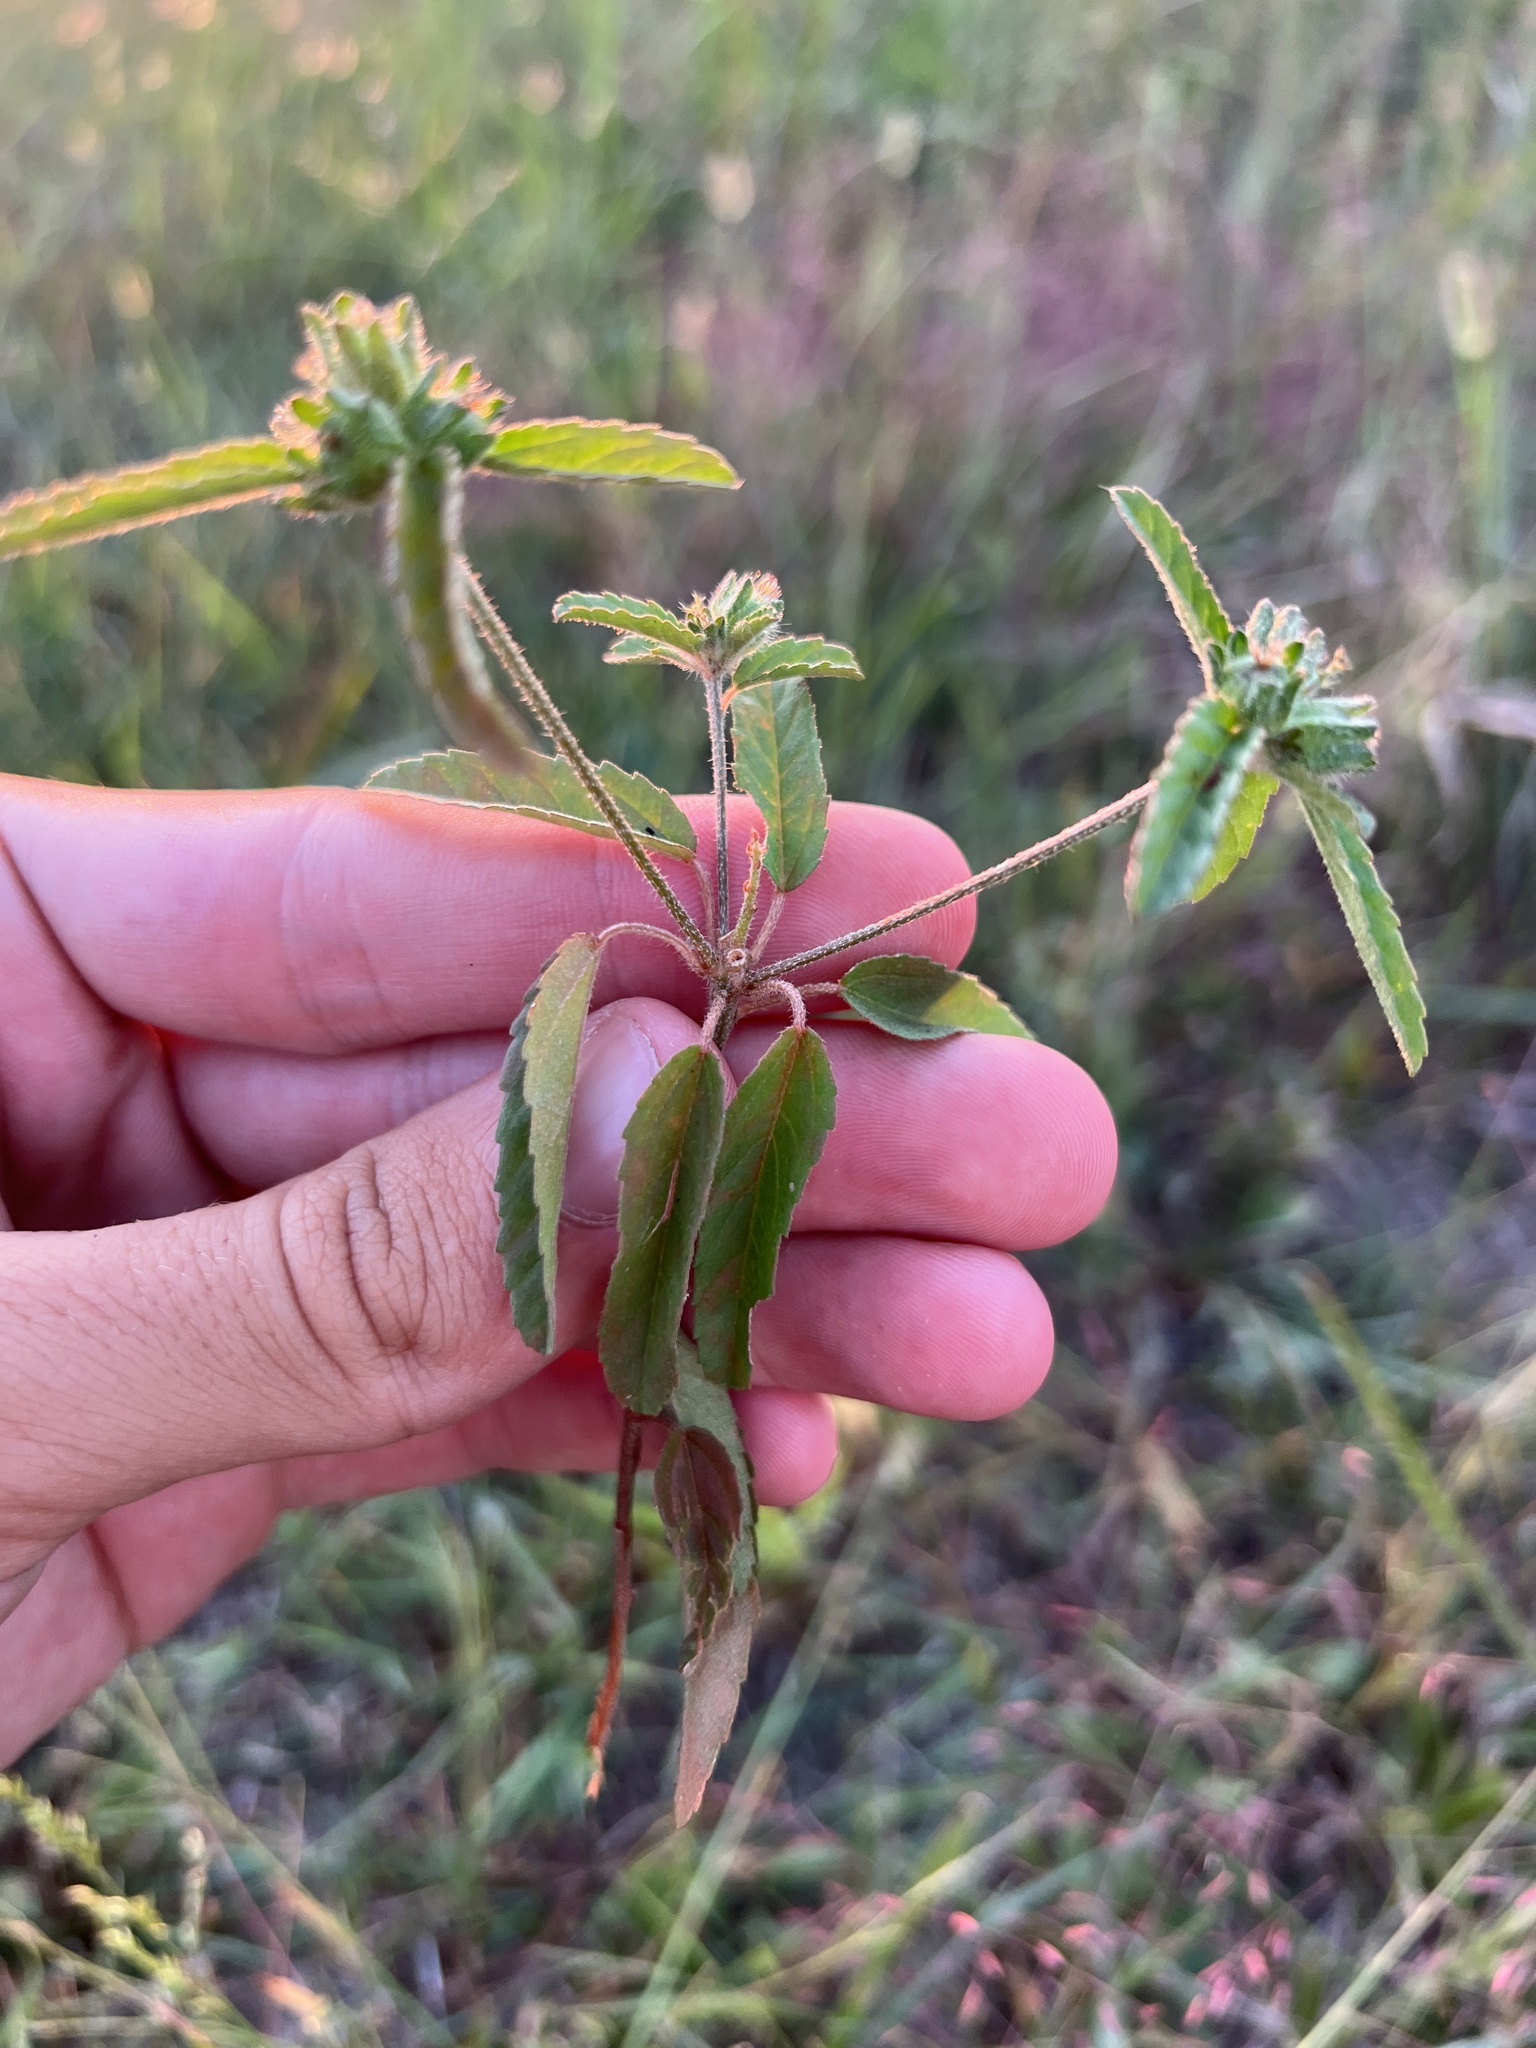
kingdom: Plantae
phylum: Tracheophyta
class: Magnoliopsida
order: Malpighiales
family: Euphorbiaceae
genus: Croton
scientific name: Croton glandulosus
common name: Tropic croton
